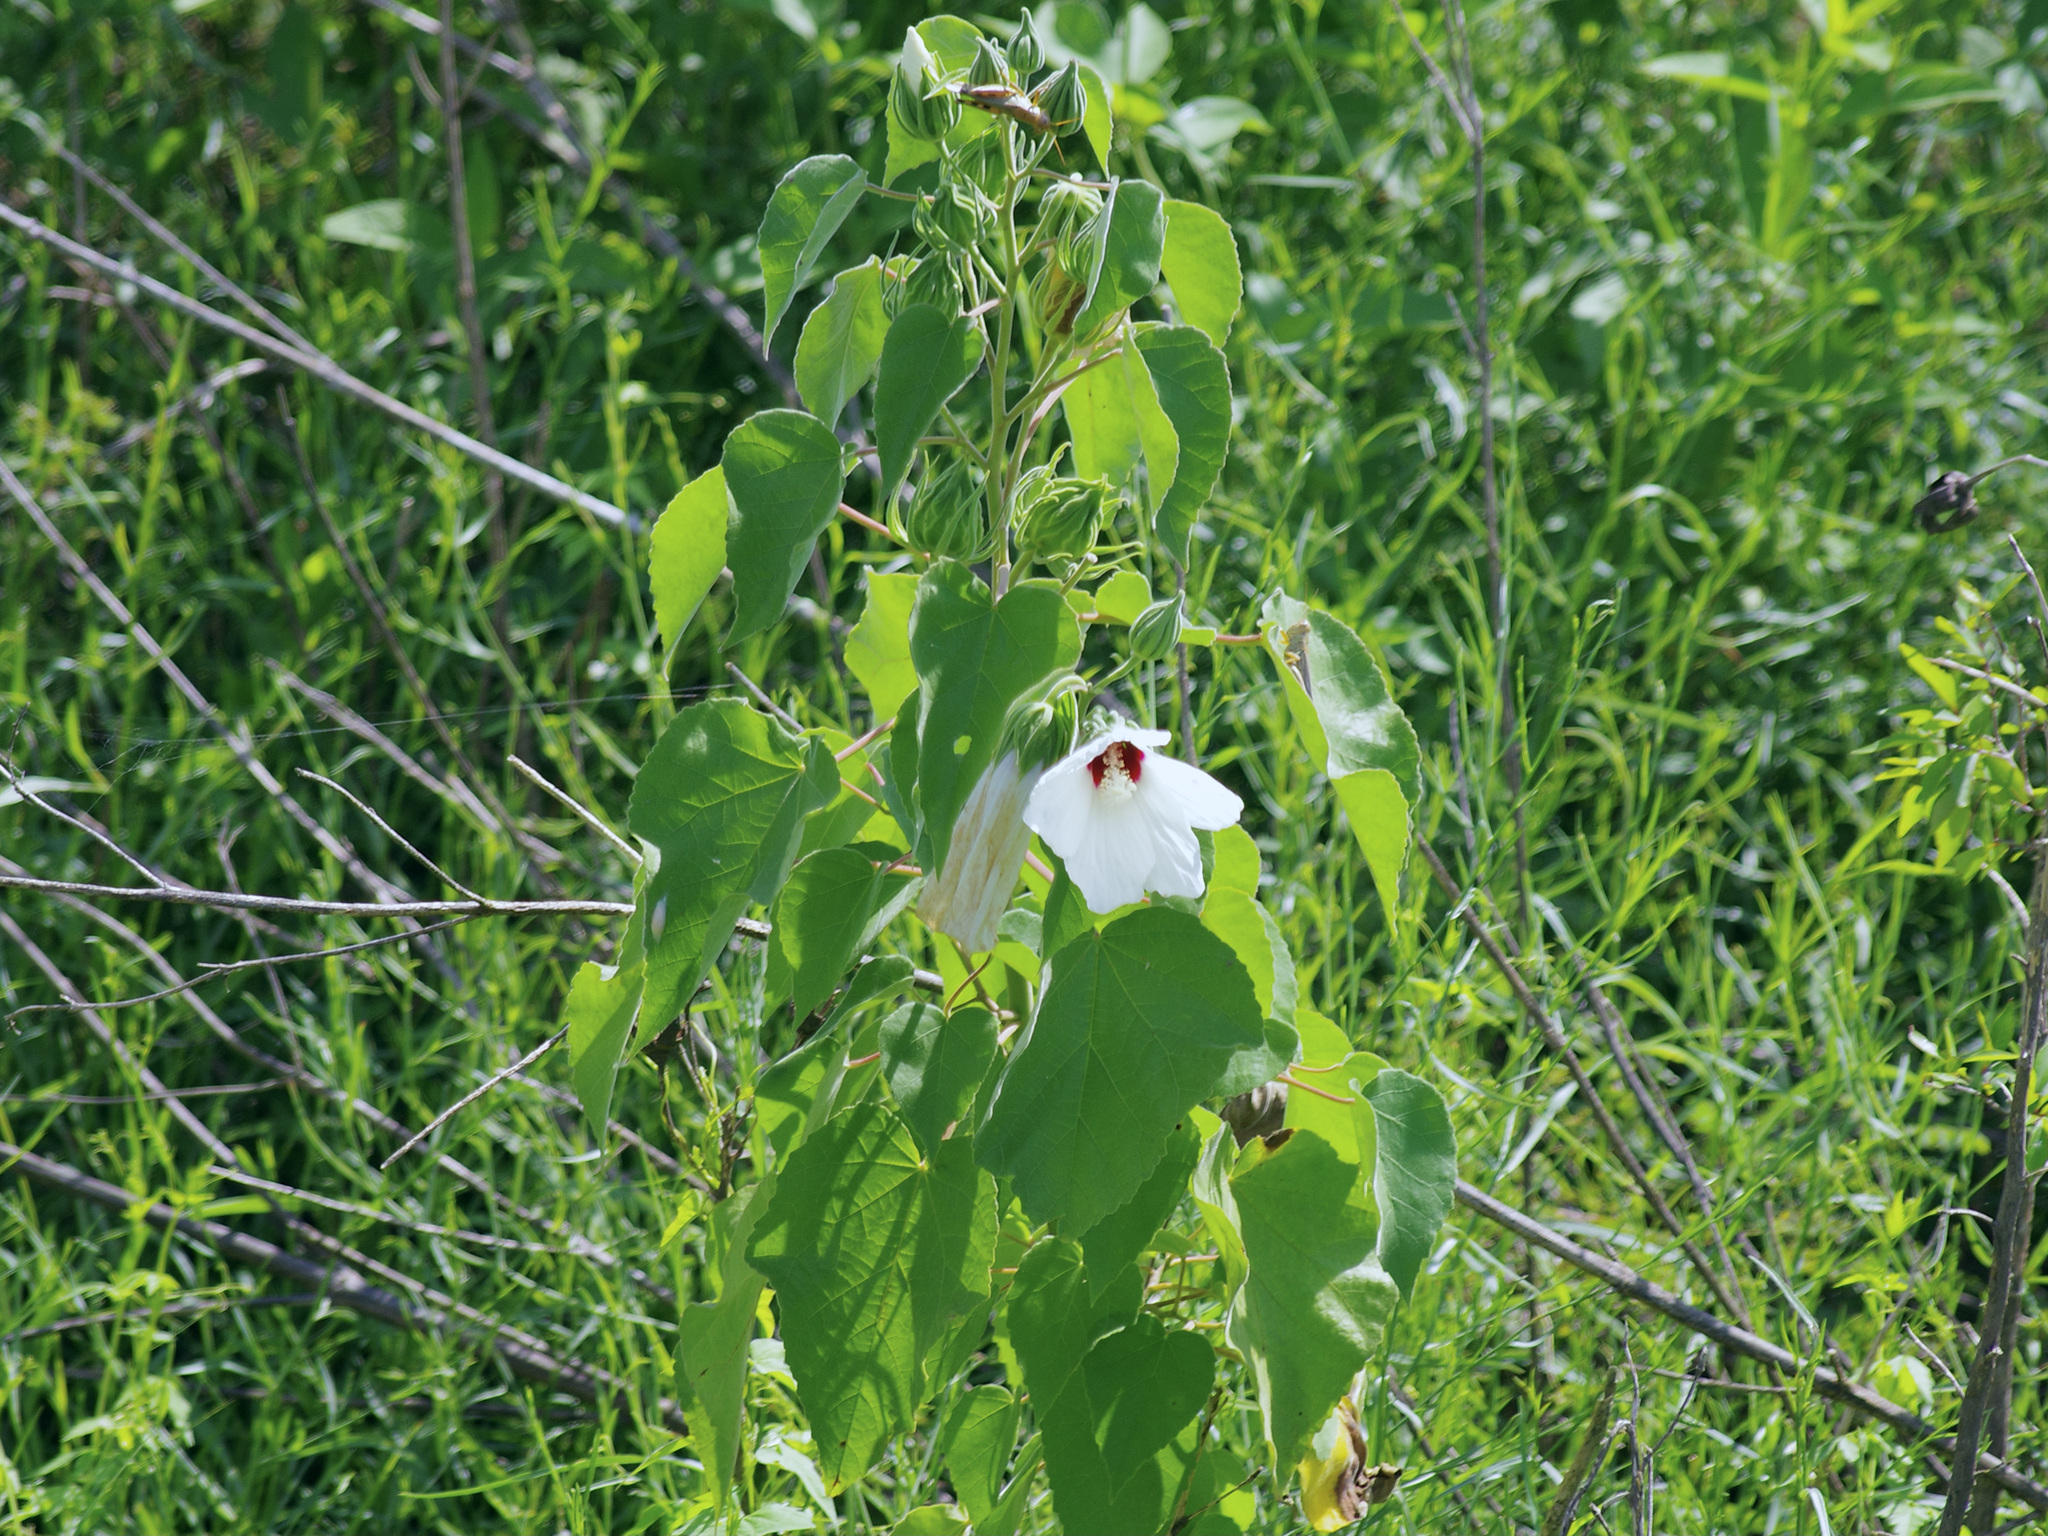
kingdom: Plantae
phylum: Tracheophyta
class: Magnoliopsida
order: Malvales
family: Malvaceae
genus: Hibiscus
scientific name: Hibiscus moscheutos
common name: Common rose-mallow
